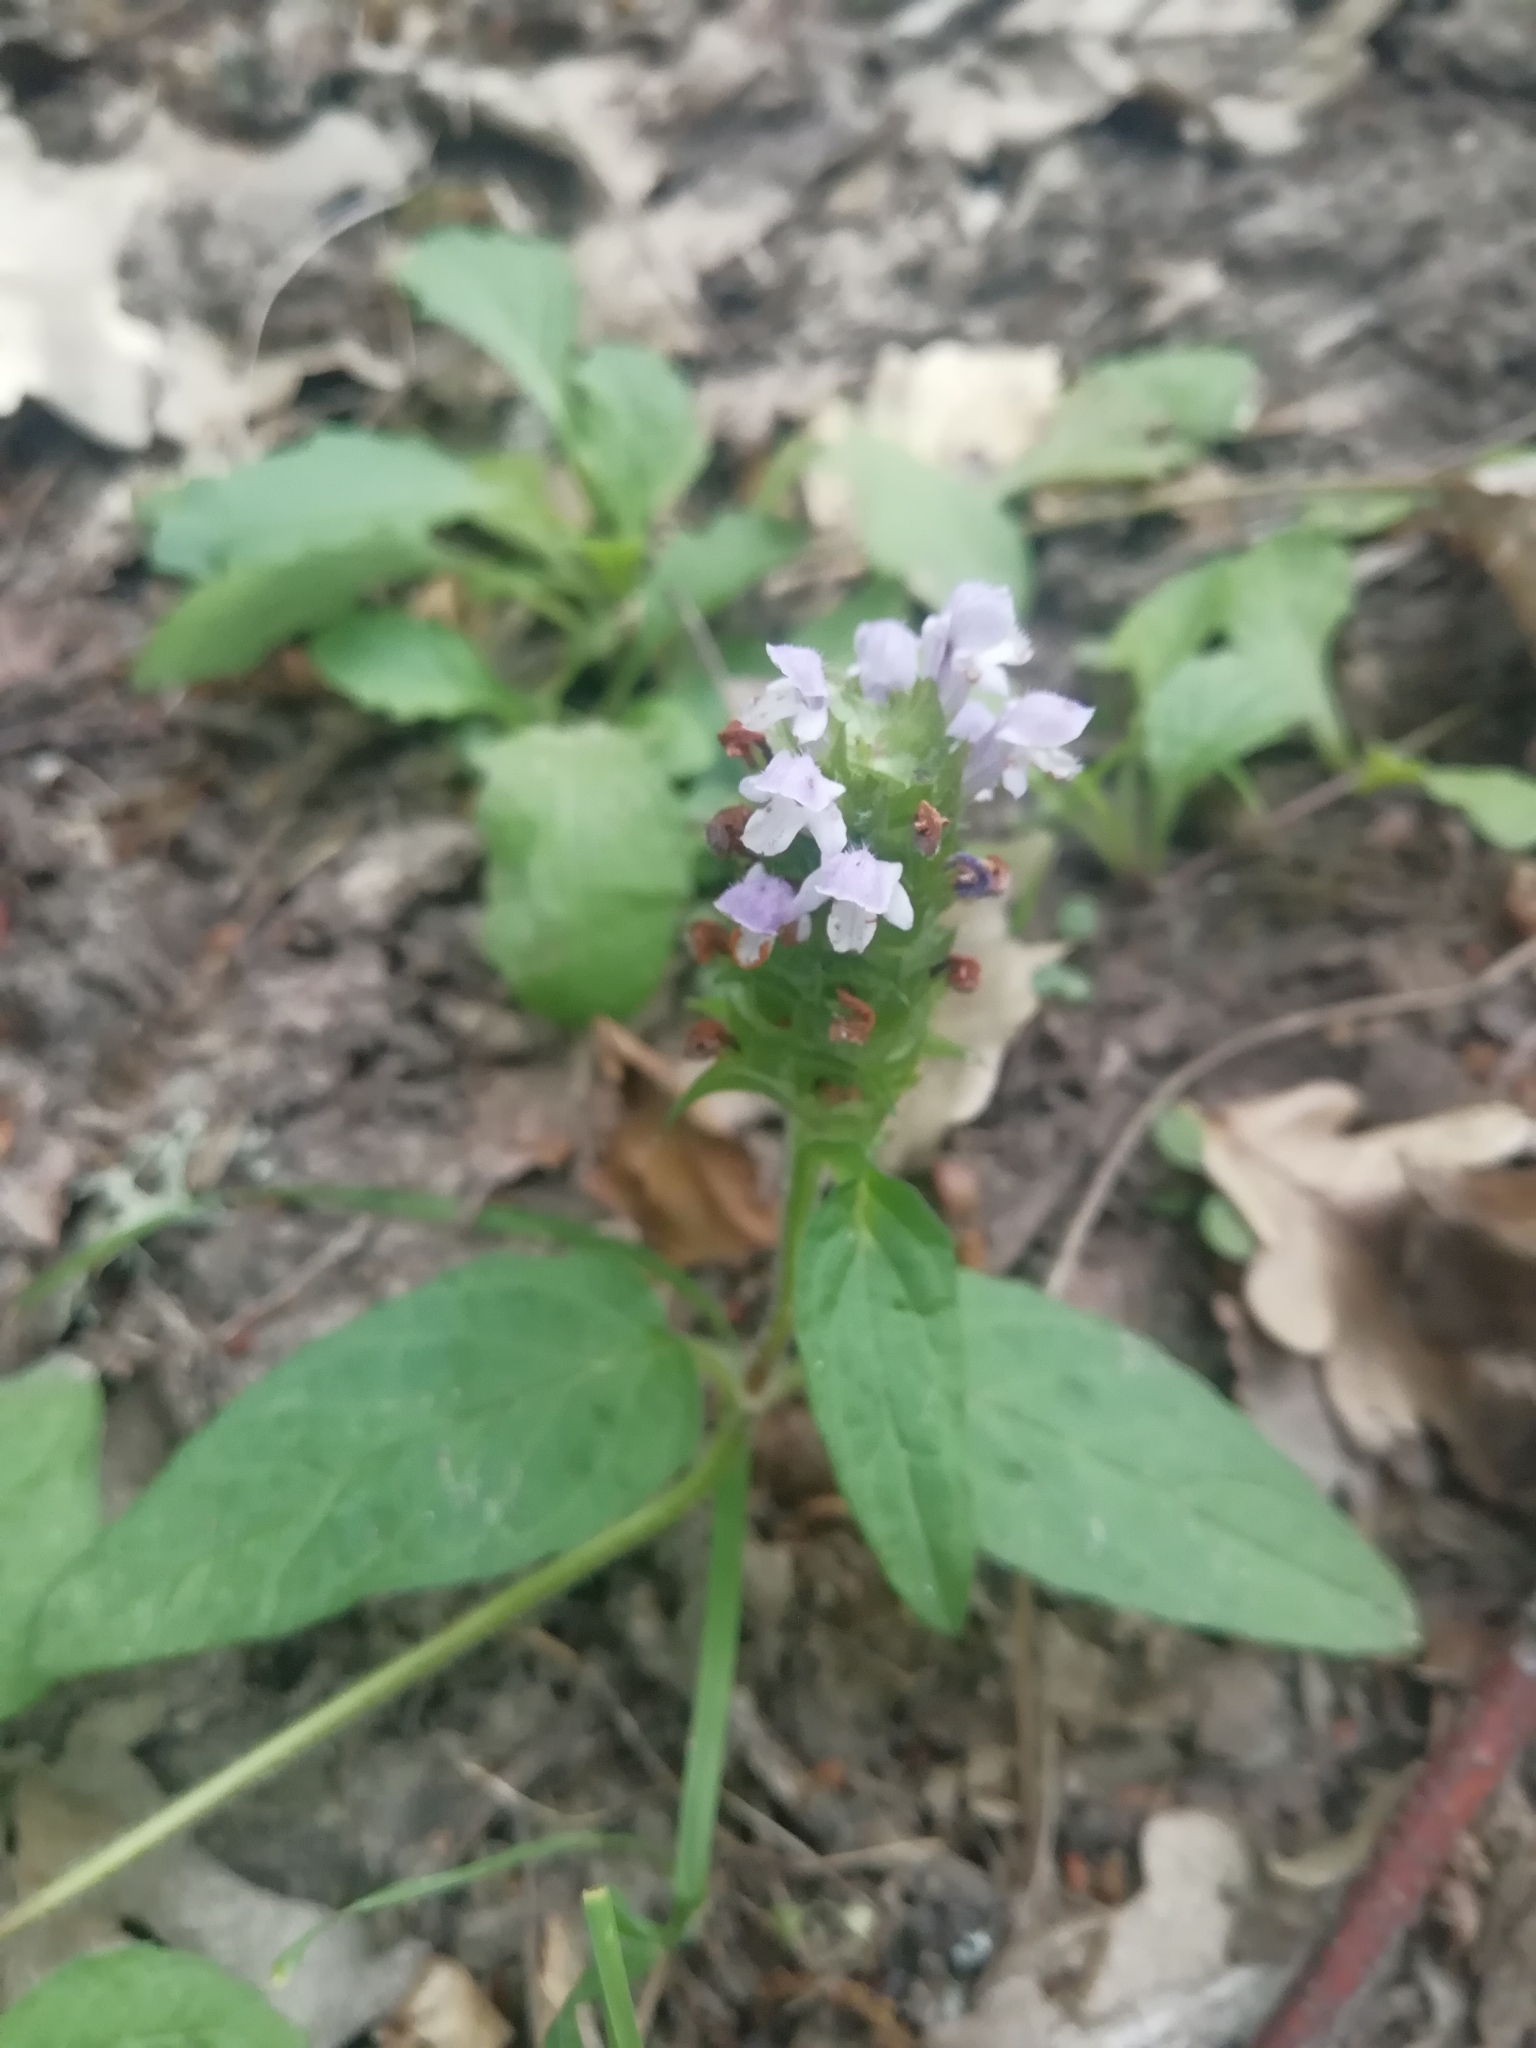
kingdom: Plantae
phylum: Tracheophyta
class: Magnoliopsida
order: Lamiales
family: Lamiaceae
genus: Prunella
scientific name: Prunella vulgaris
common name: Heal-all
